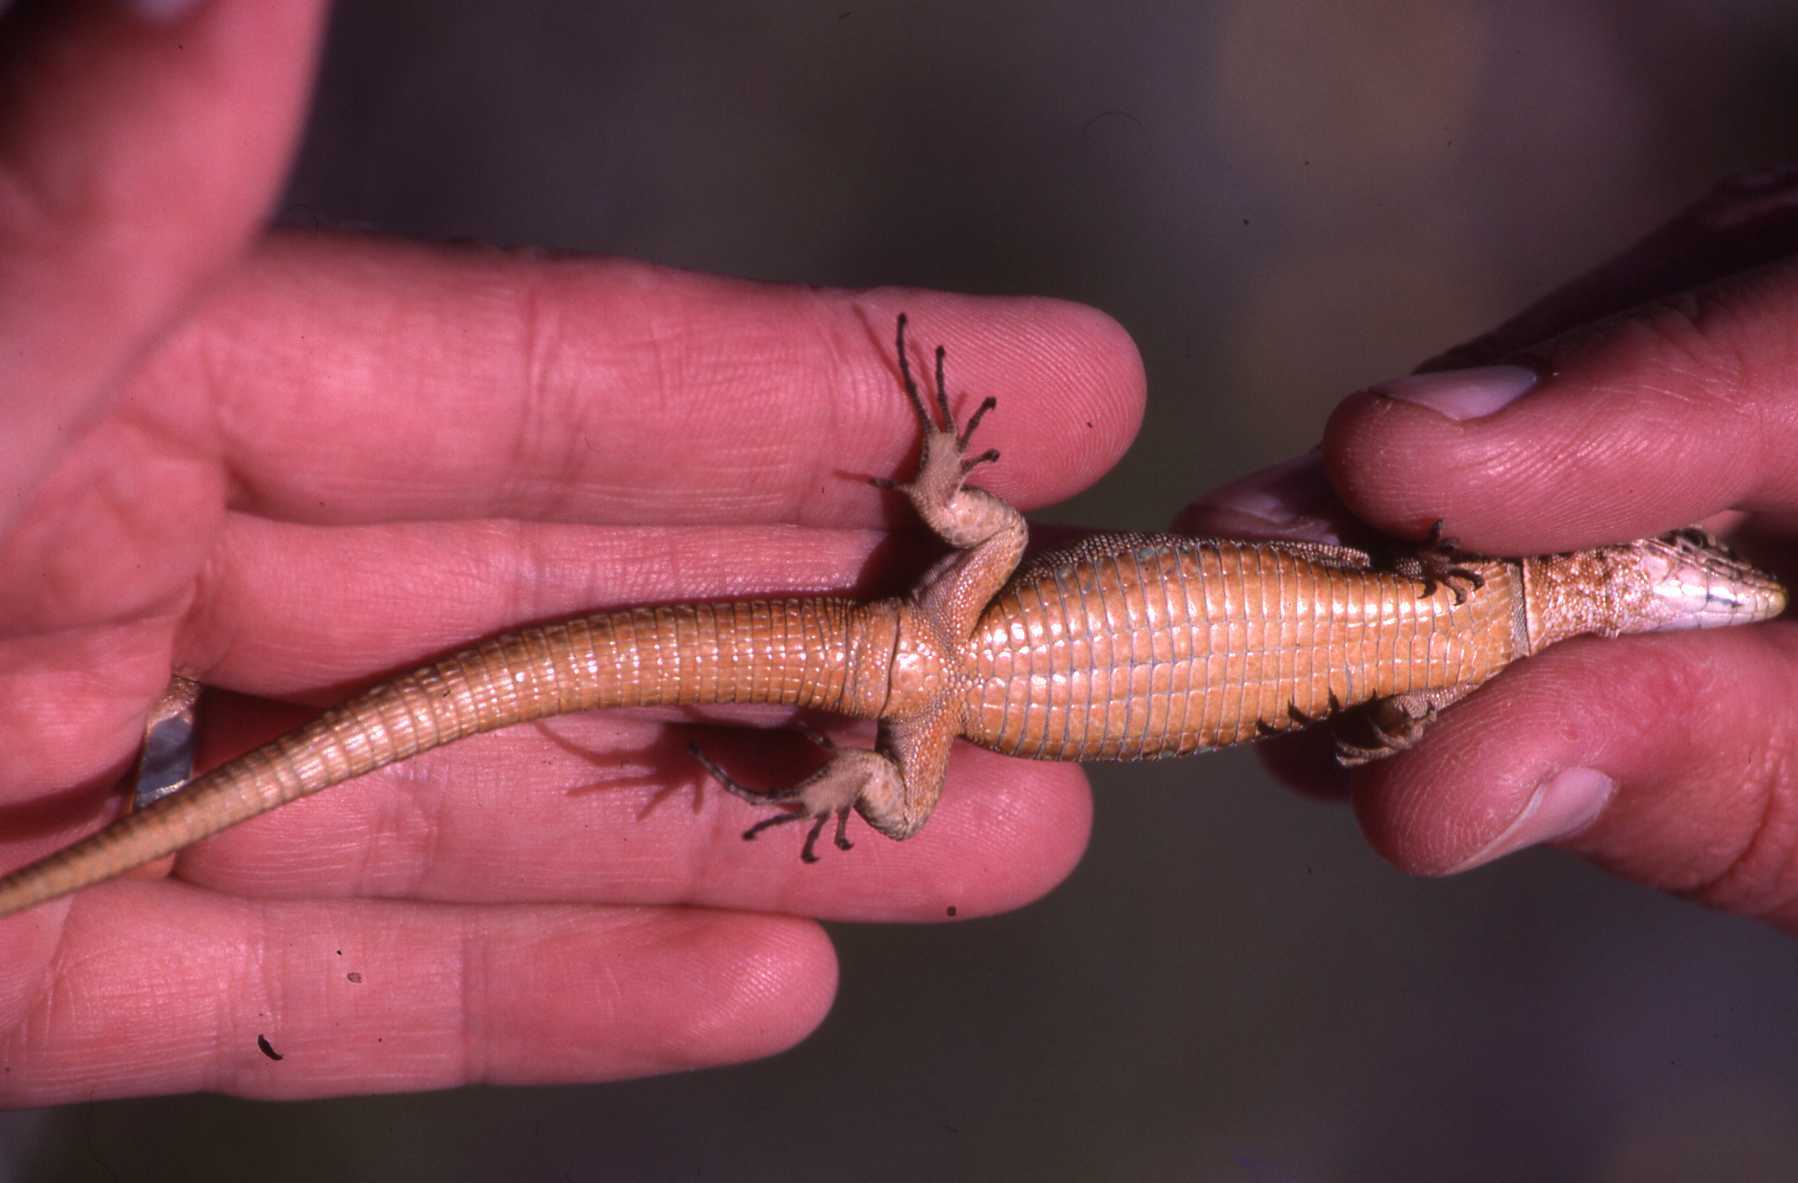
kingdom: Animalia
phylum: Chordata
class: Squamata
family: Lacertidae
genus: Podarcis
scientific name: Podarcis pityusensis
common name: Ibiza wall lizard
